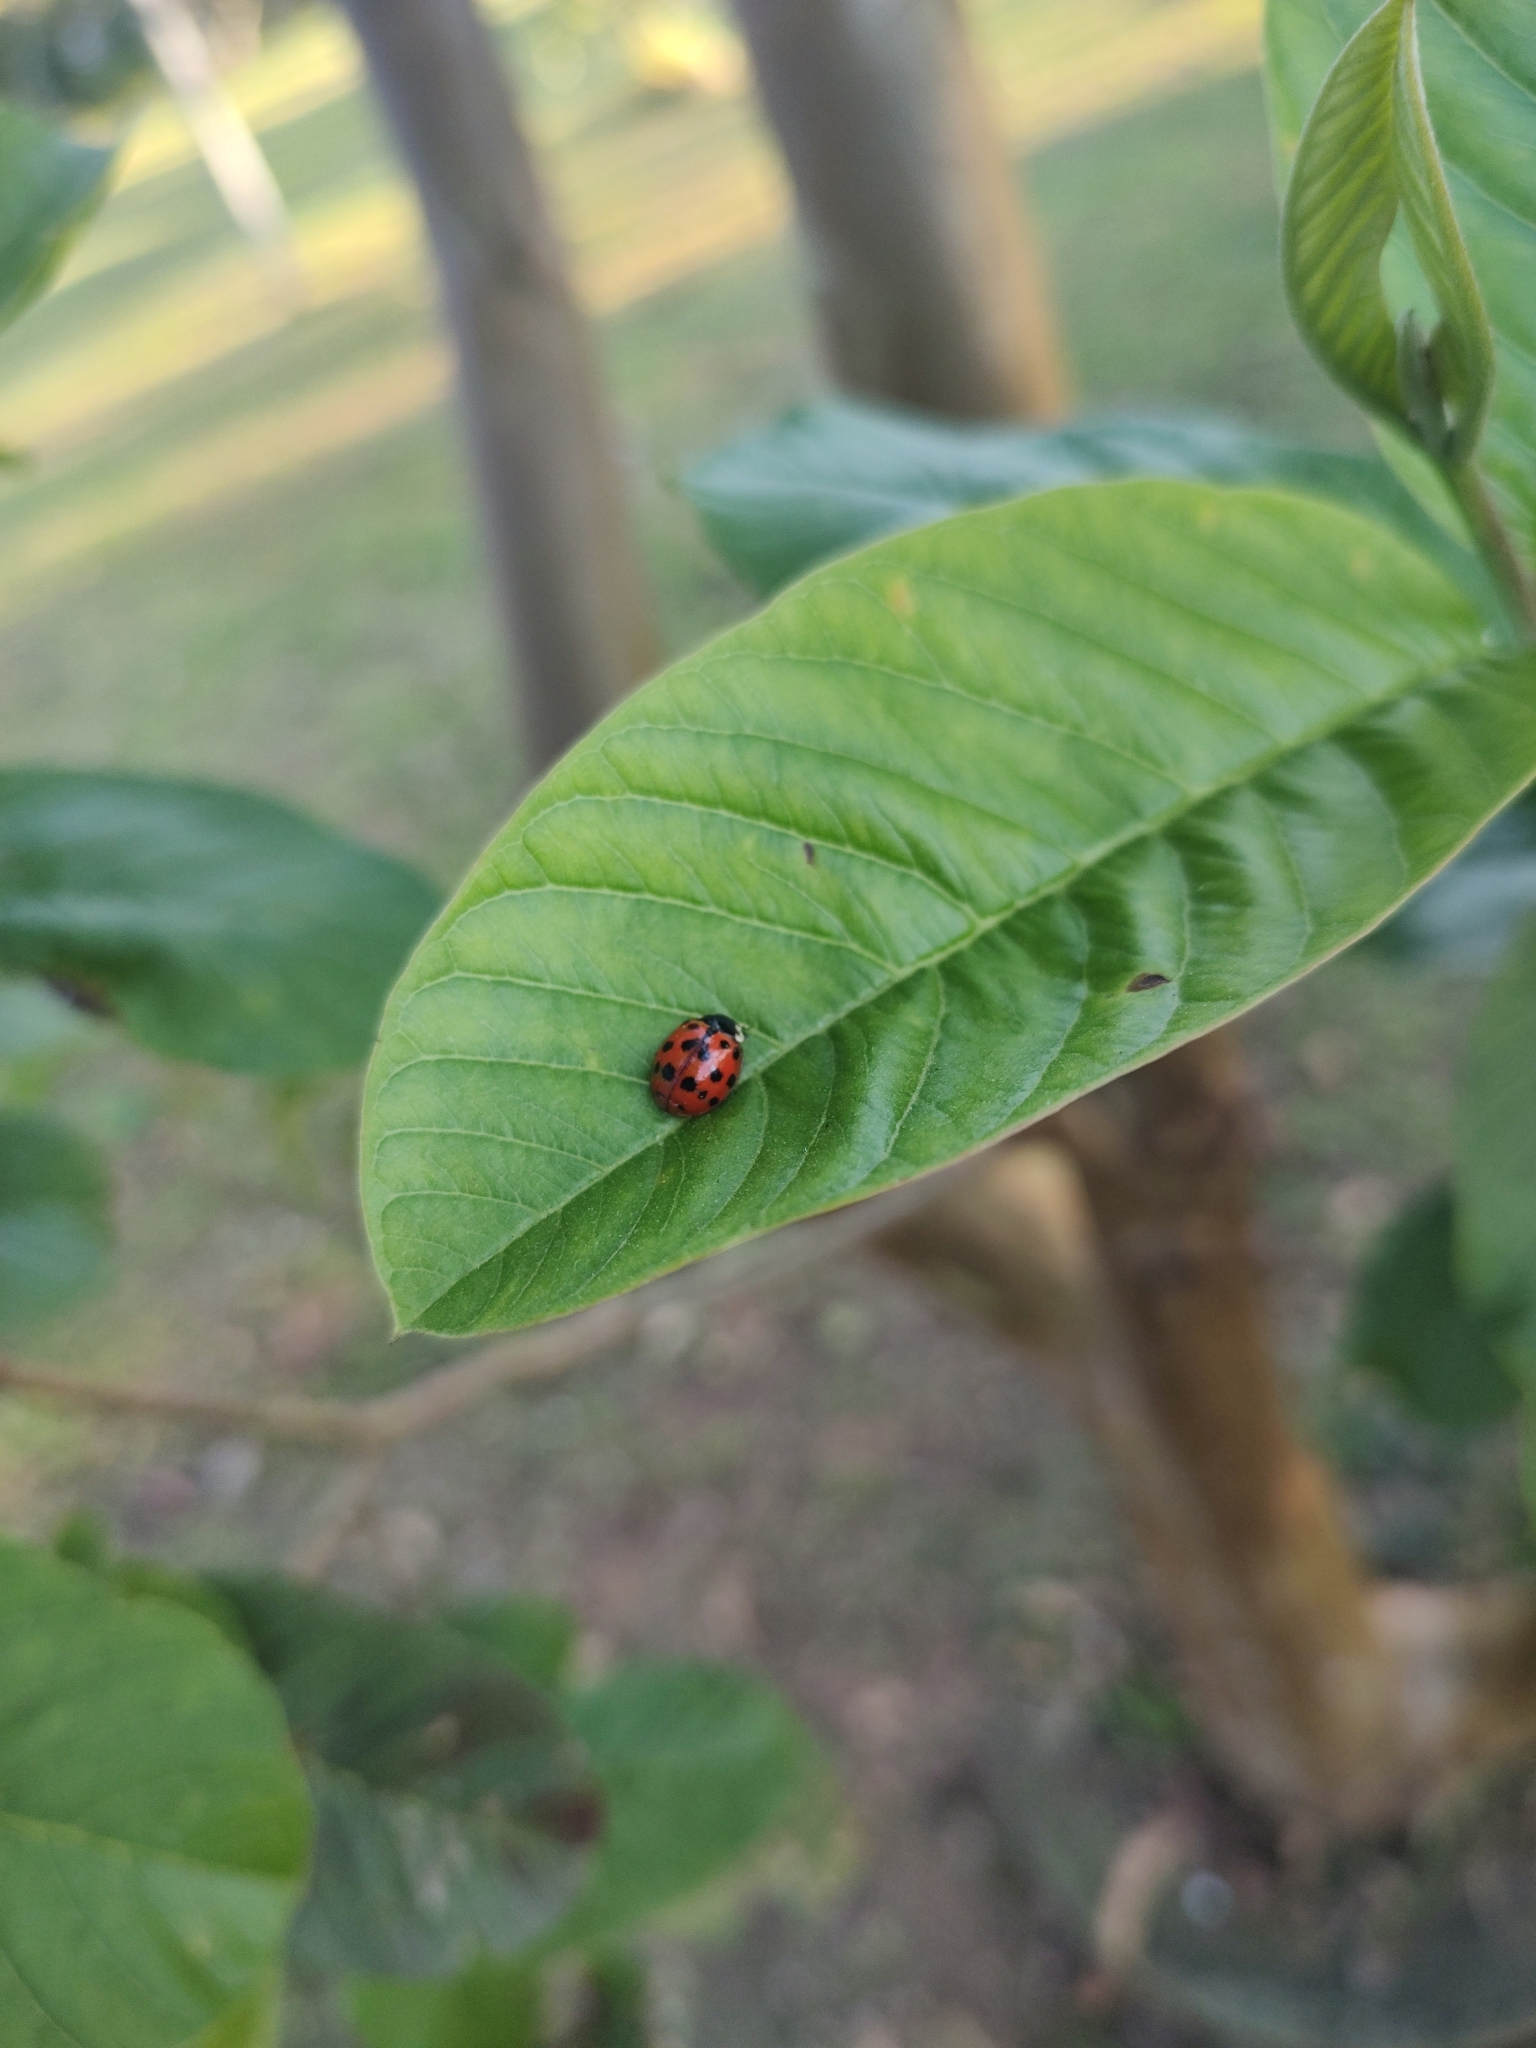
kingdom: Animalia
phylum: Arthropoda
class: Insecta
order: Coleoptera
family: Coccinellidae
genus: Harmonia
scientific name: Harmonia axyridis
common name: Harlequin ladybird
